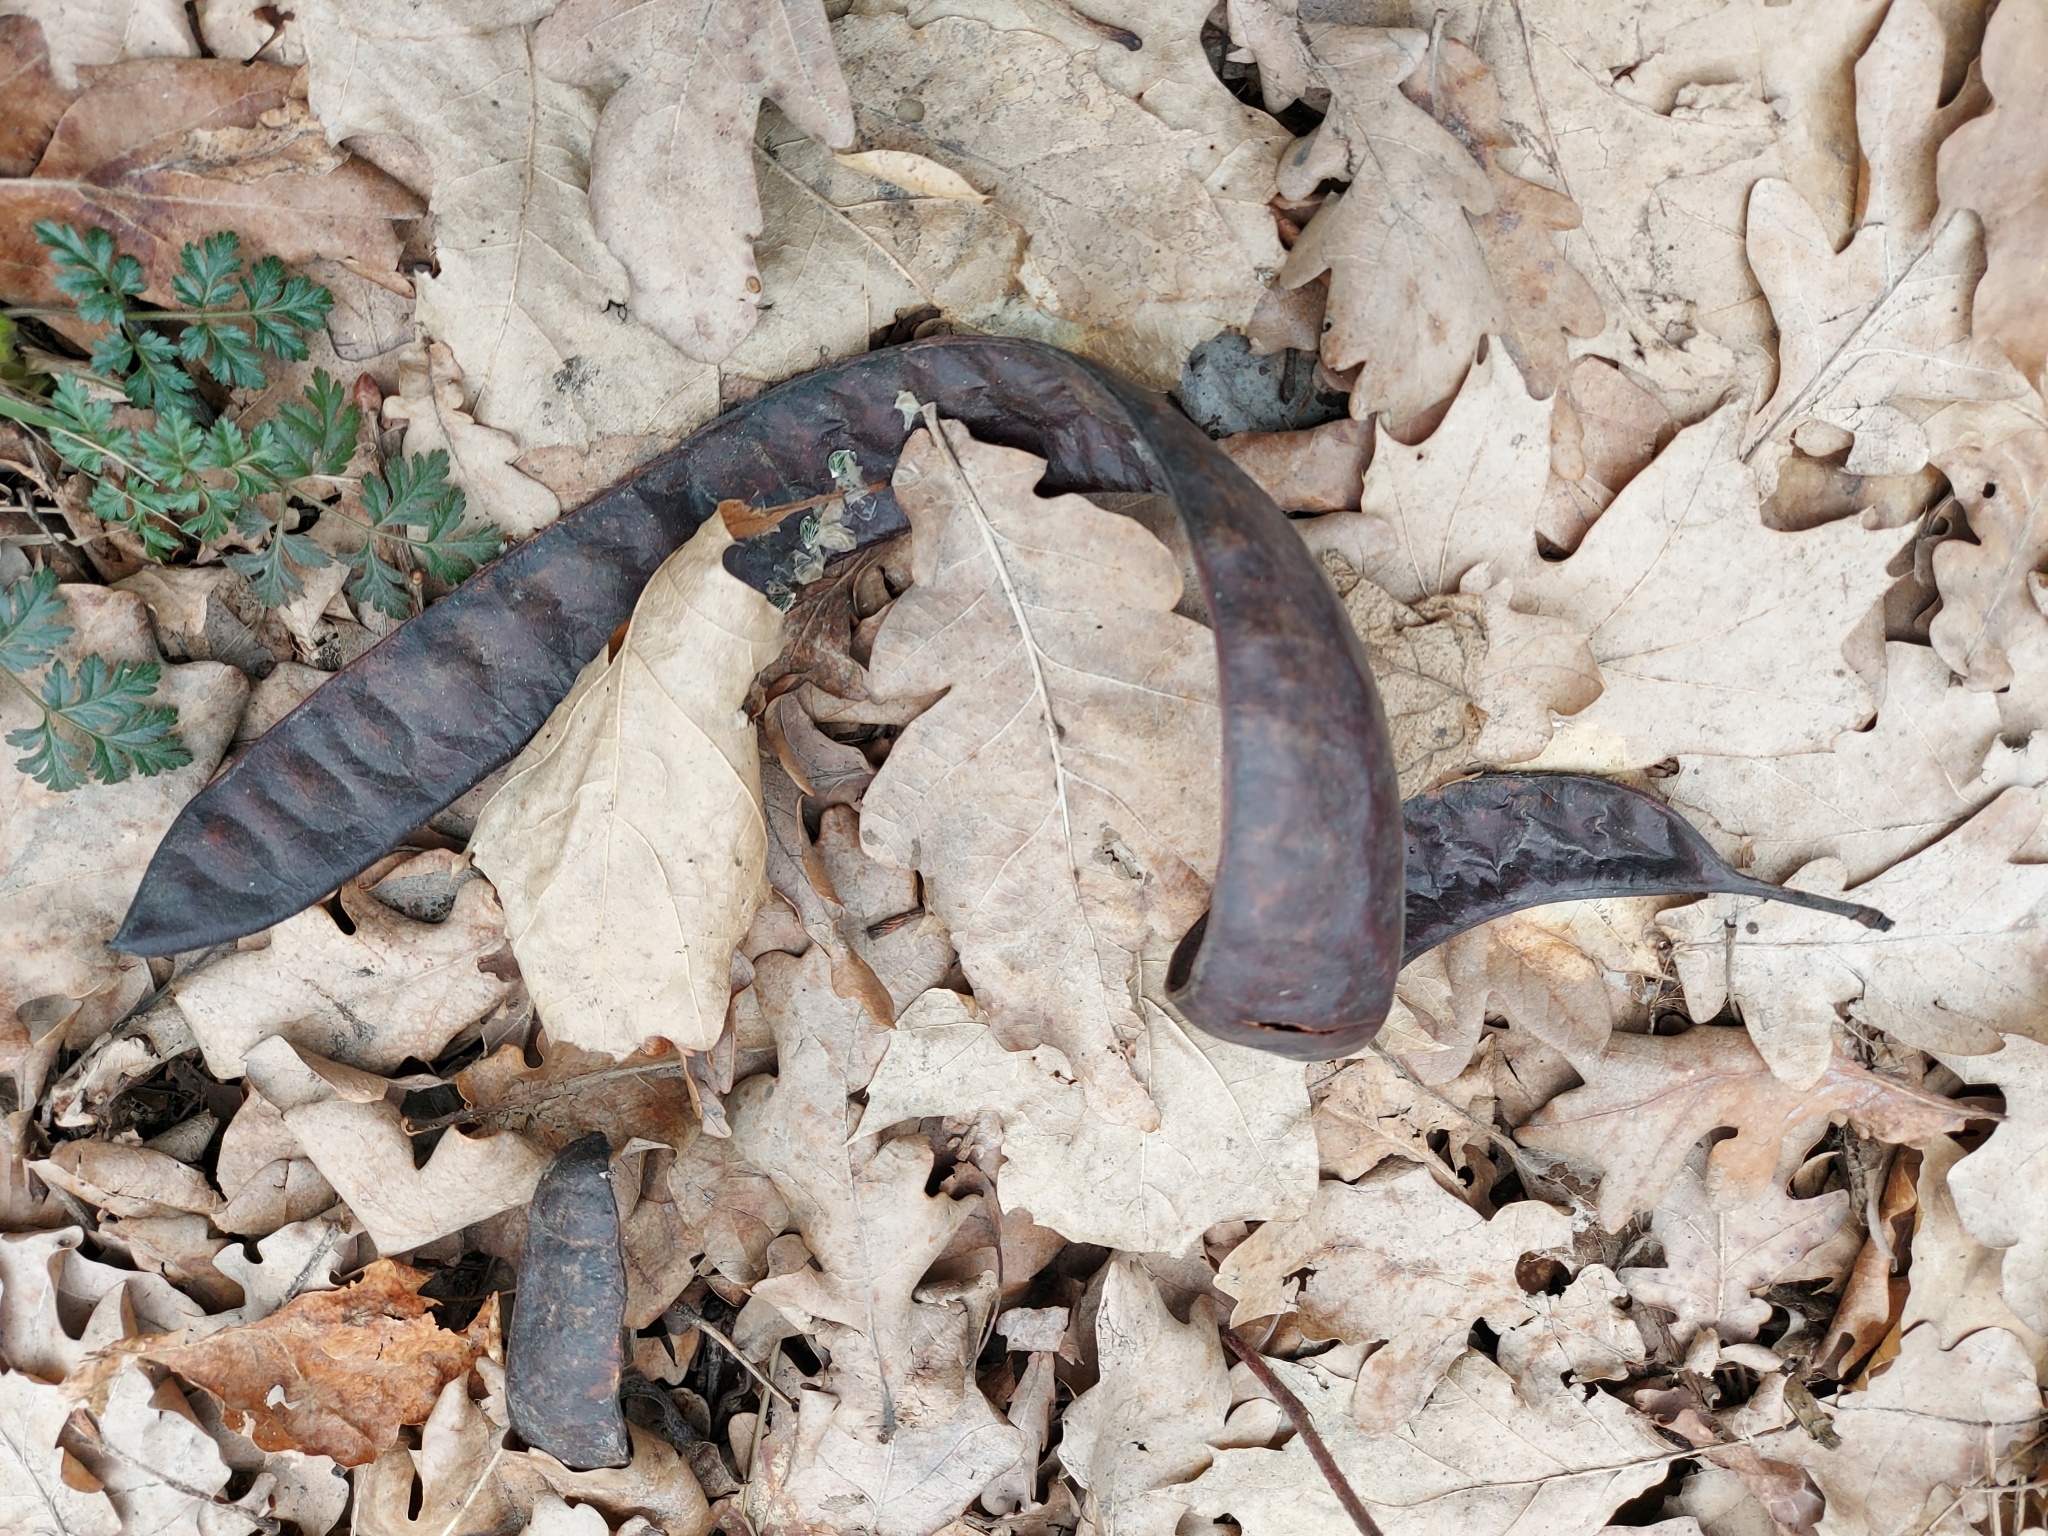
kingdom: Plantae
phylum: Tracheophyta
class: Magnoliopsida
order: Fabales
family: Fabaceae
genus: Gleditsia
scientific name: Gleditsia triacanthos
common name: Common honeylocust
